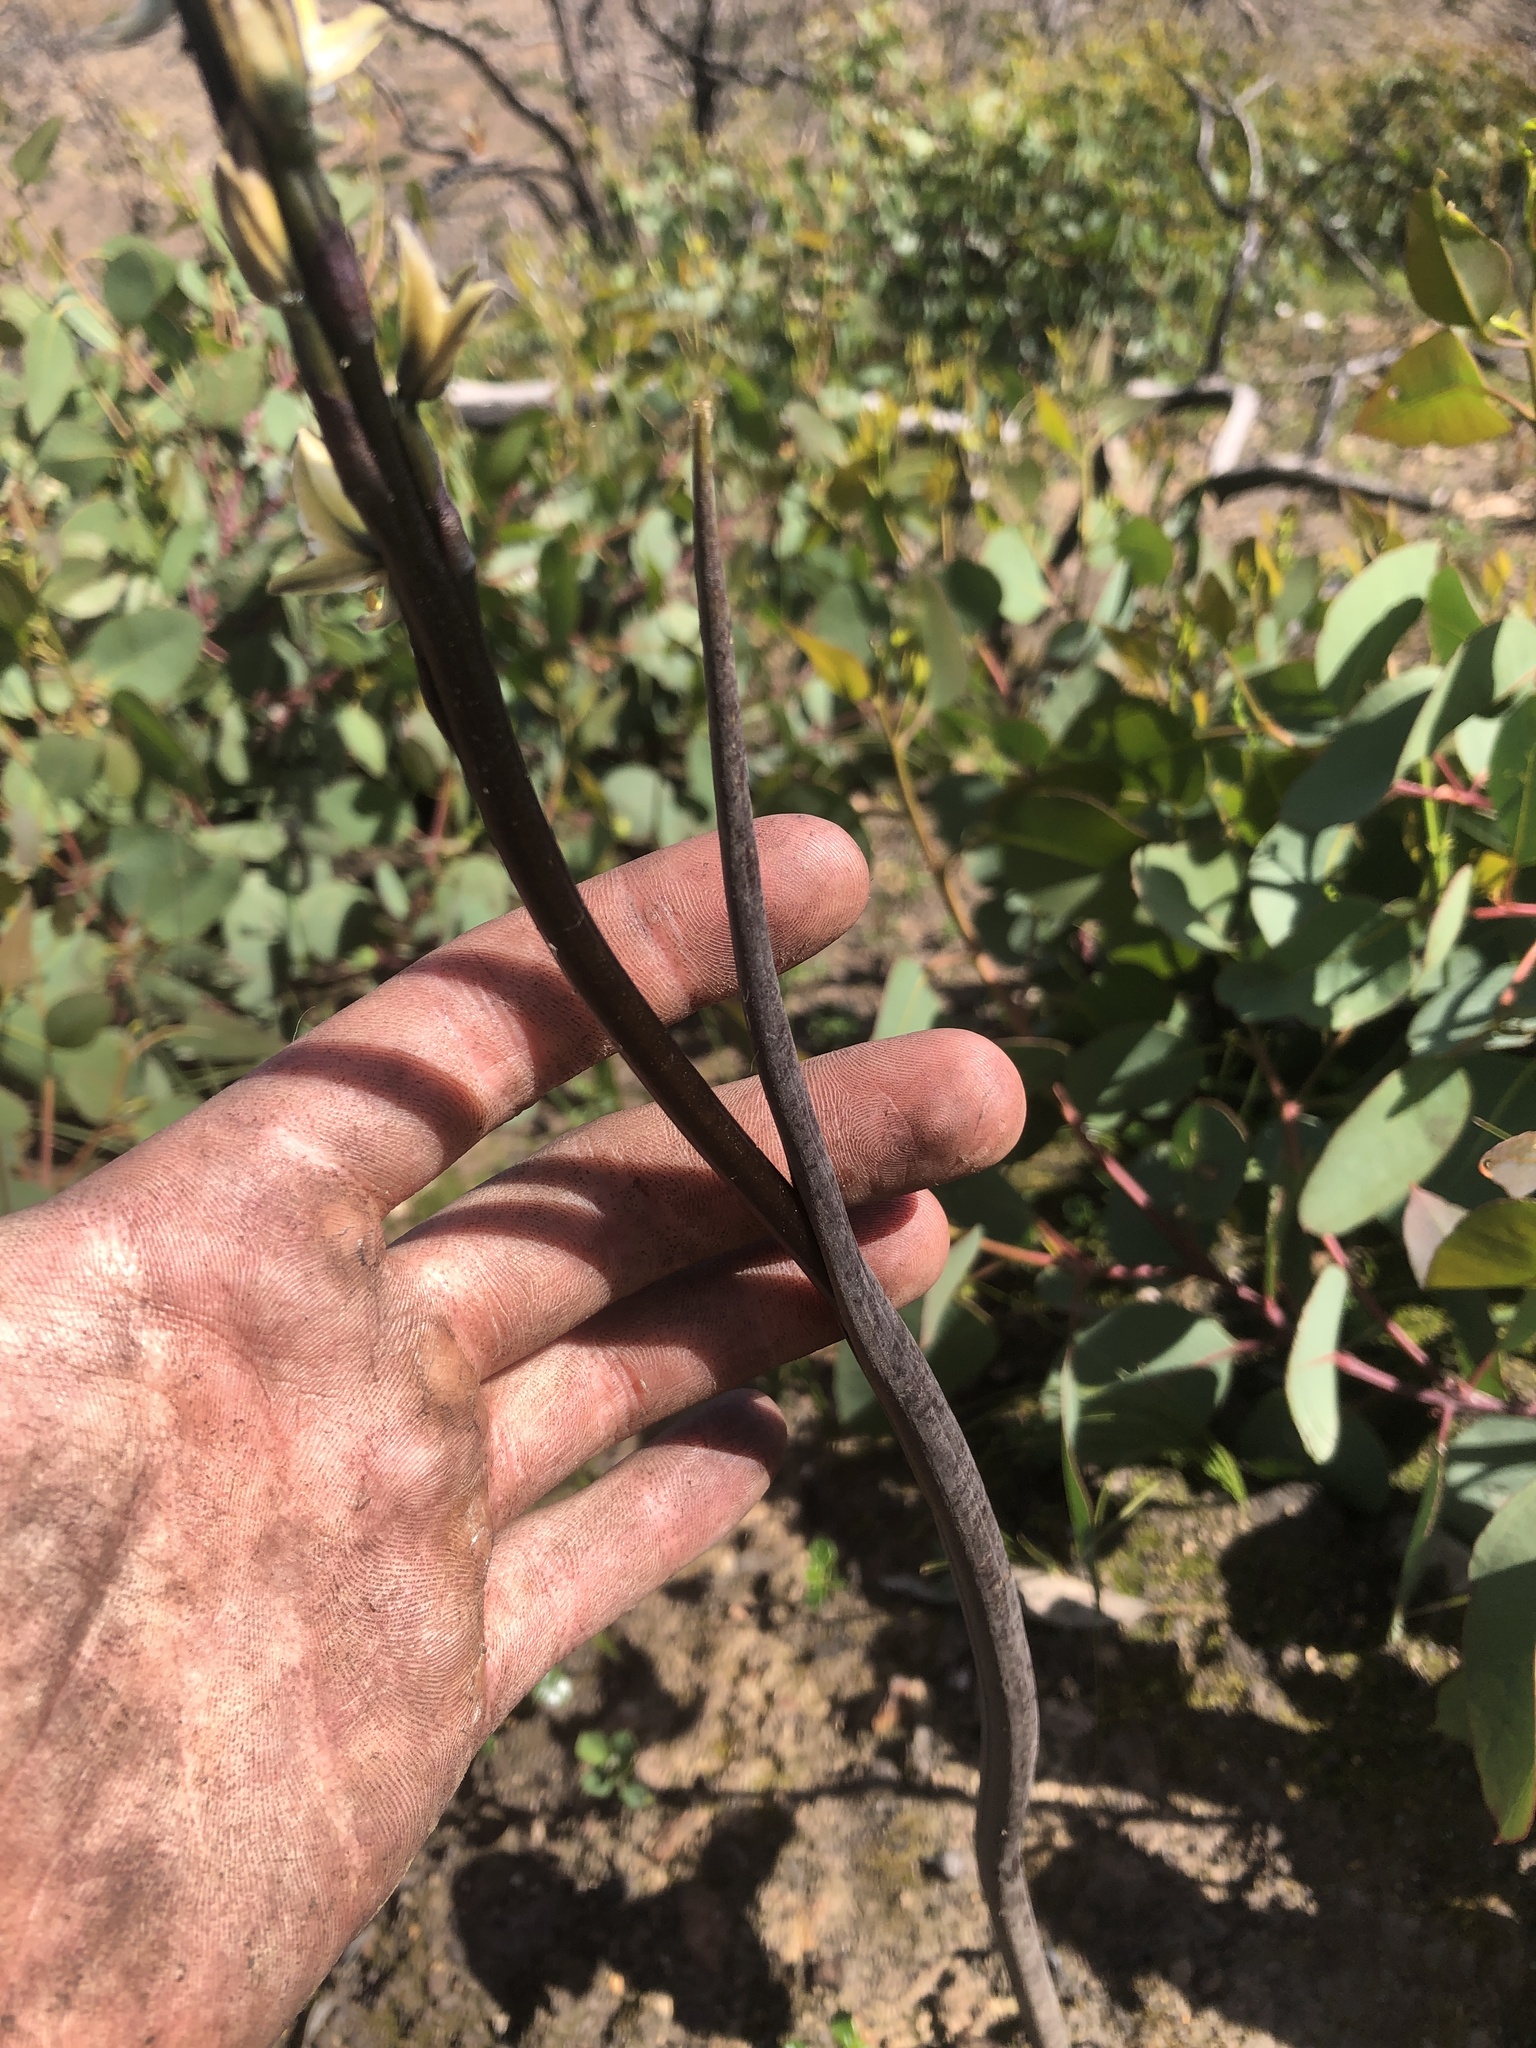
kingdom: Plantae
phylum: Tracheophyta
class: Liliopsida
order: Asparagales
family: Orchidaceae
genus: Prasophyllum
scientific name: Prasophyllum elatum
